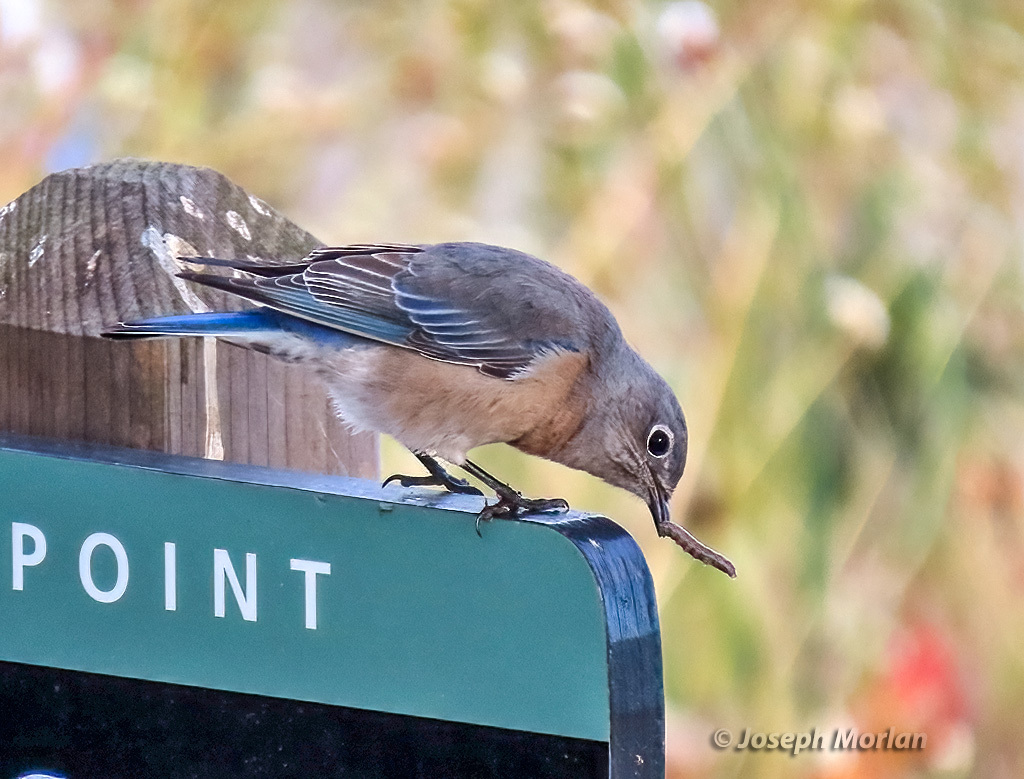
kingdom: Animalia
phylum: Chordata
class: Aves
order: Passeriformes
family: Turdidae
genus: Sialia
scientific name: Sialia mexicana
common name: Western bluebird
